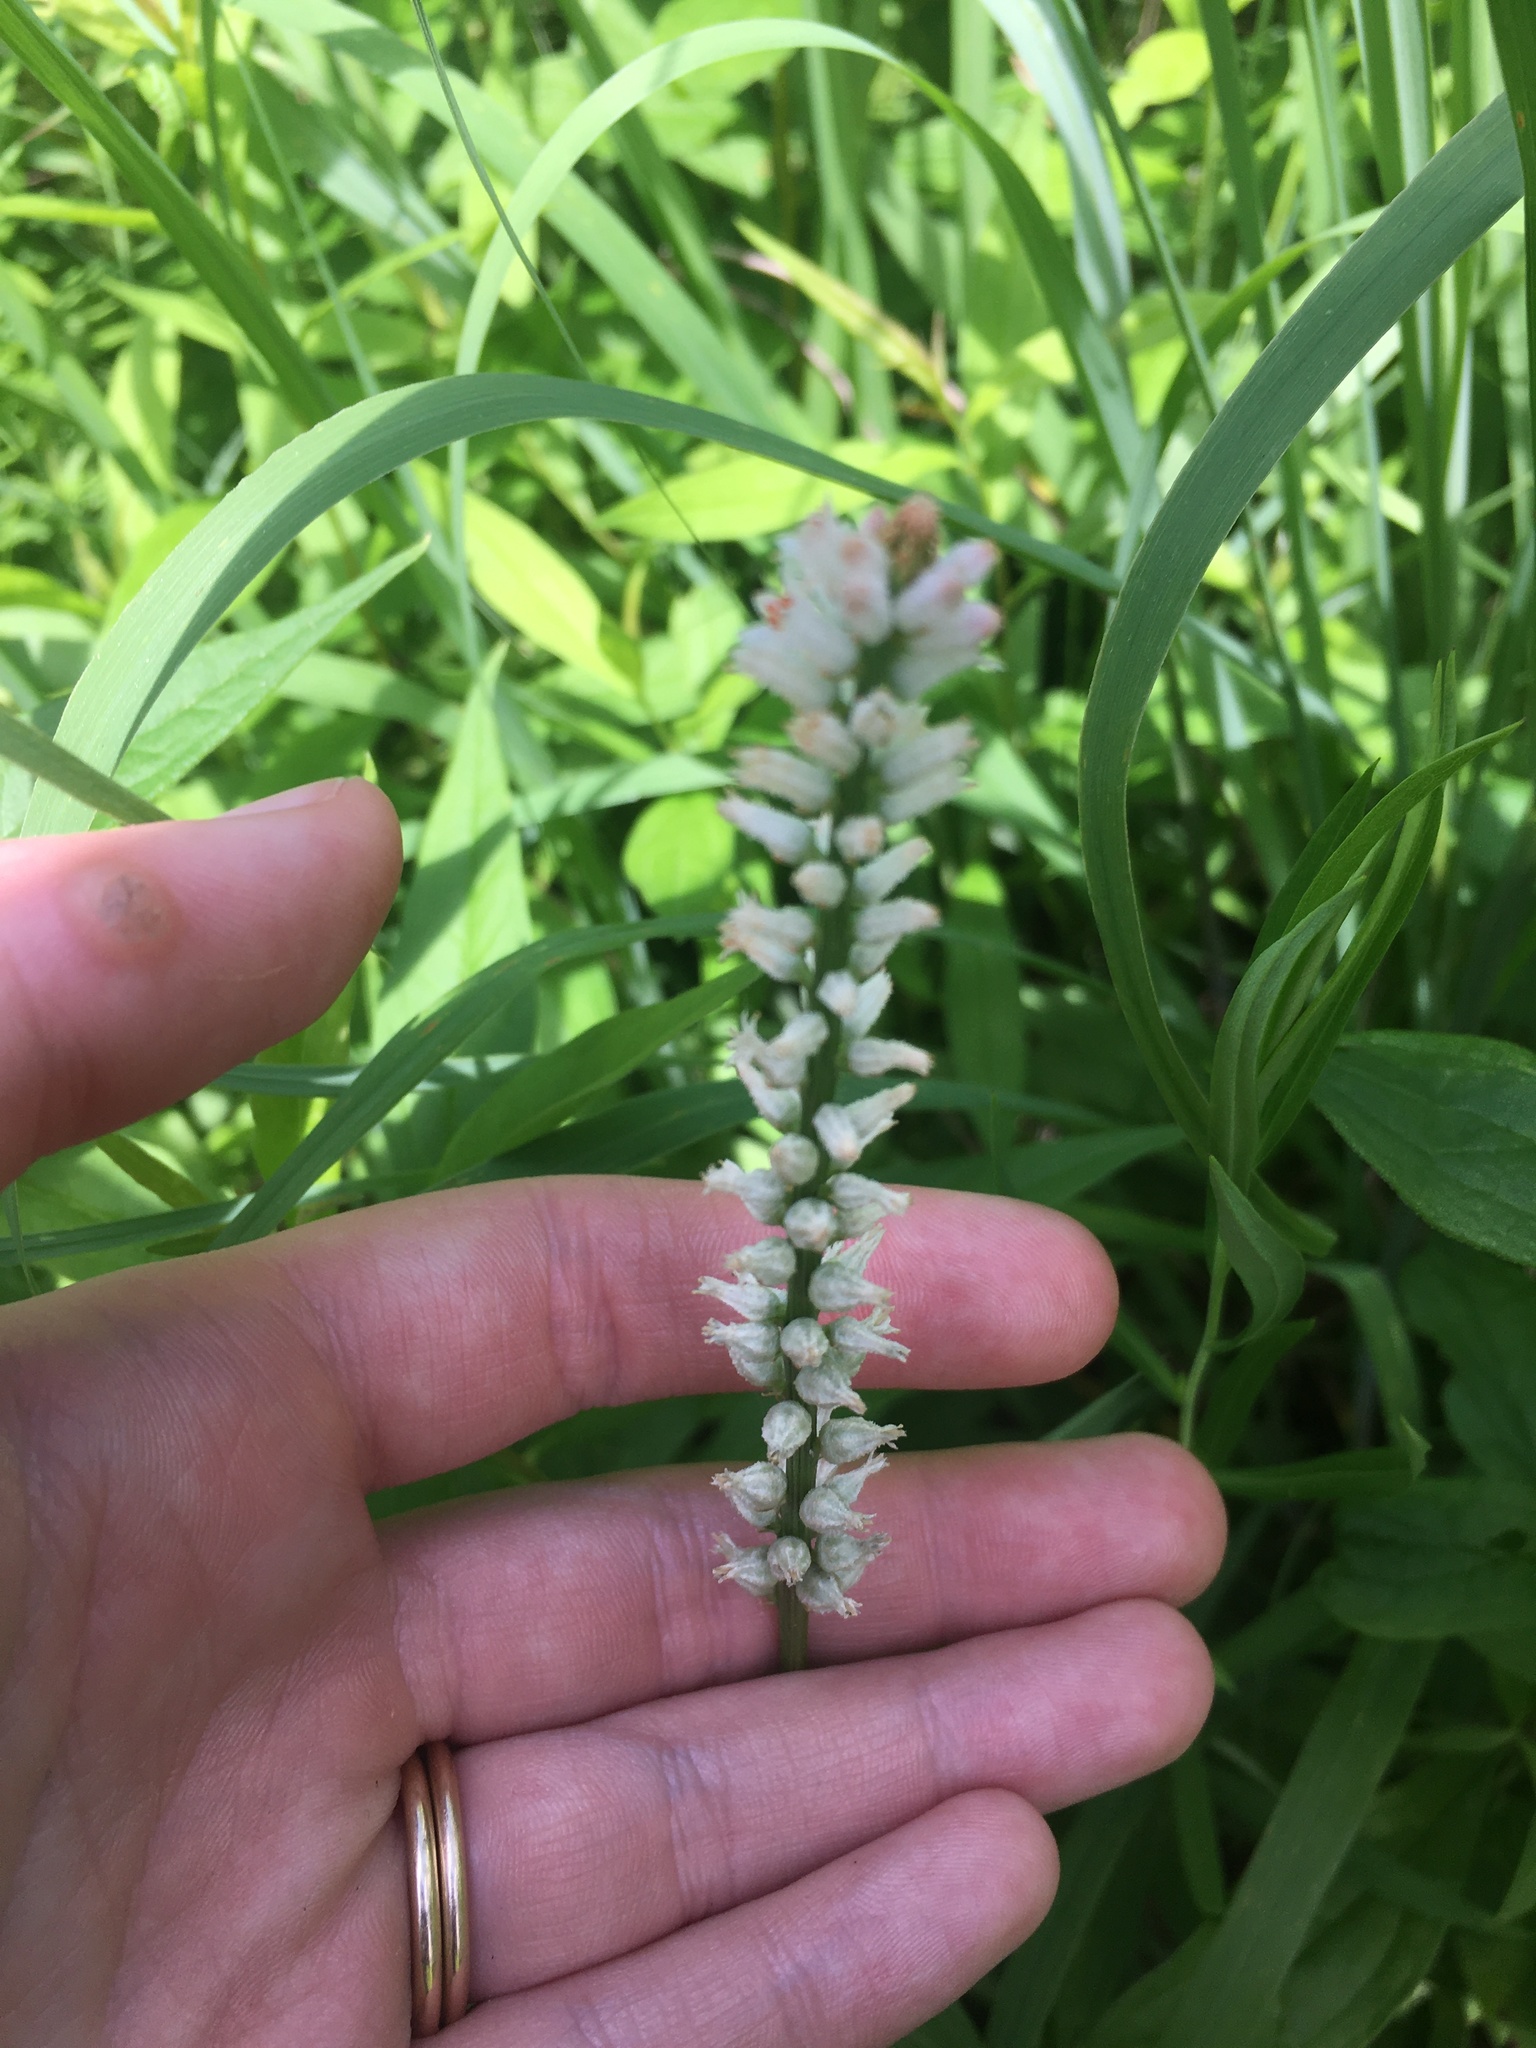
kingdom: Plantae
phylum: Tracheophyta
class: Liliopsida
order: Dioscoreales
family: Nartheciaceae
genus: Aletris
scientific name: Aletris farinosa
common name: Colicroot
